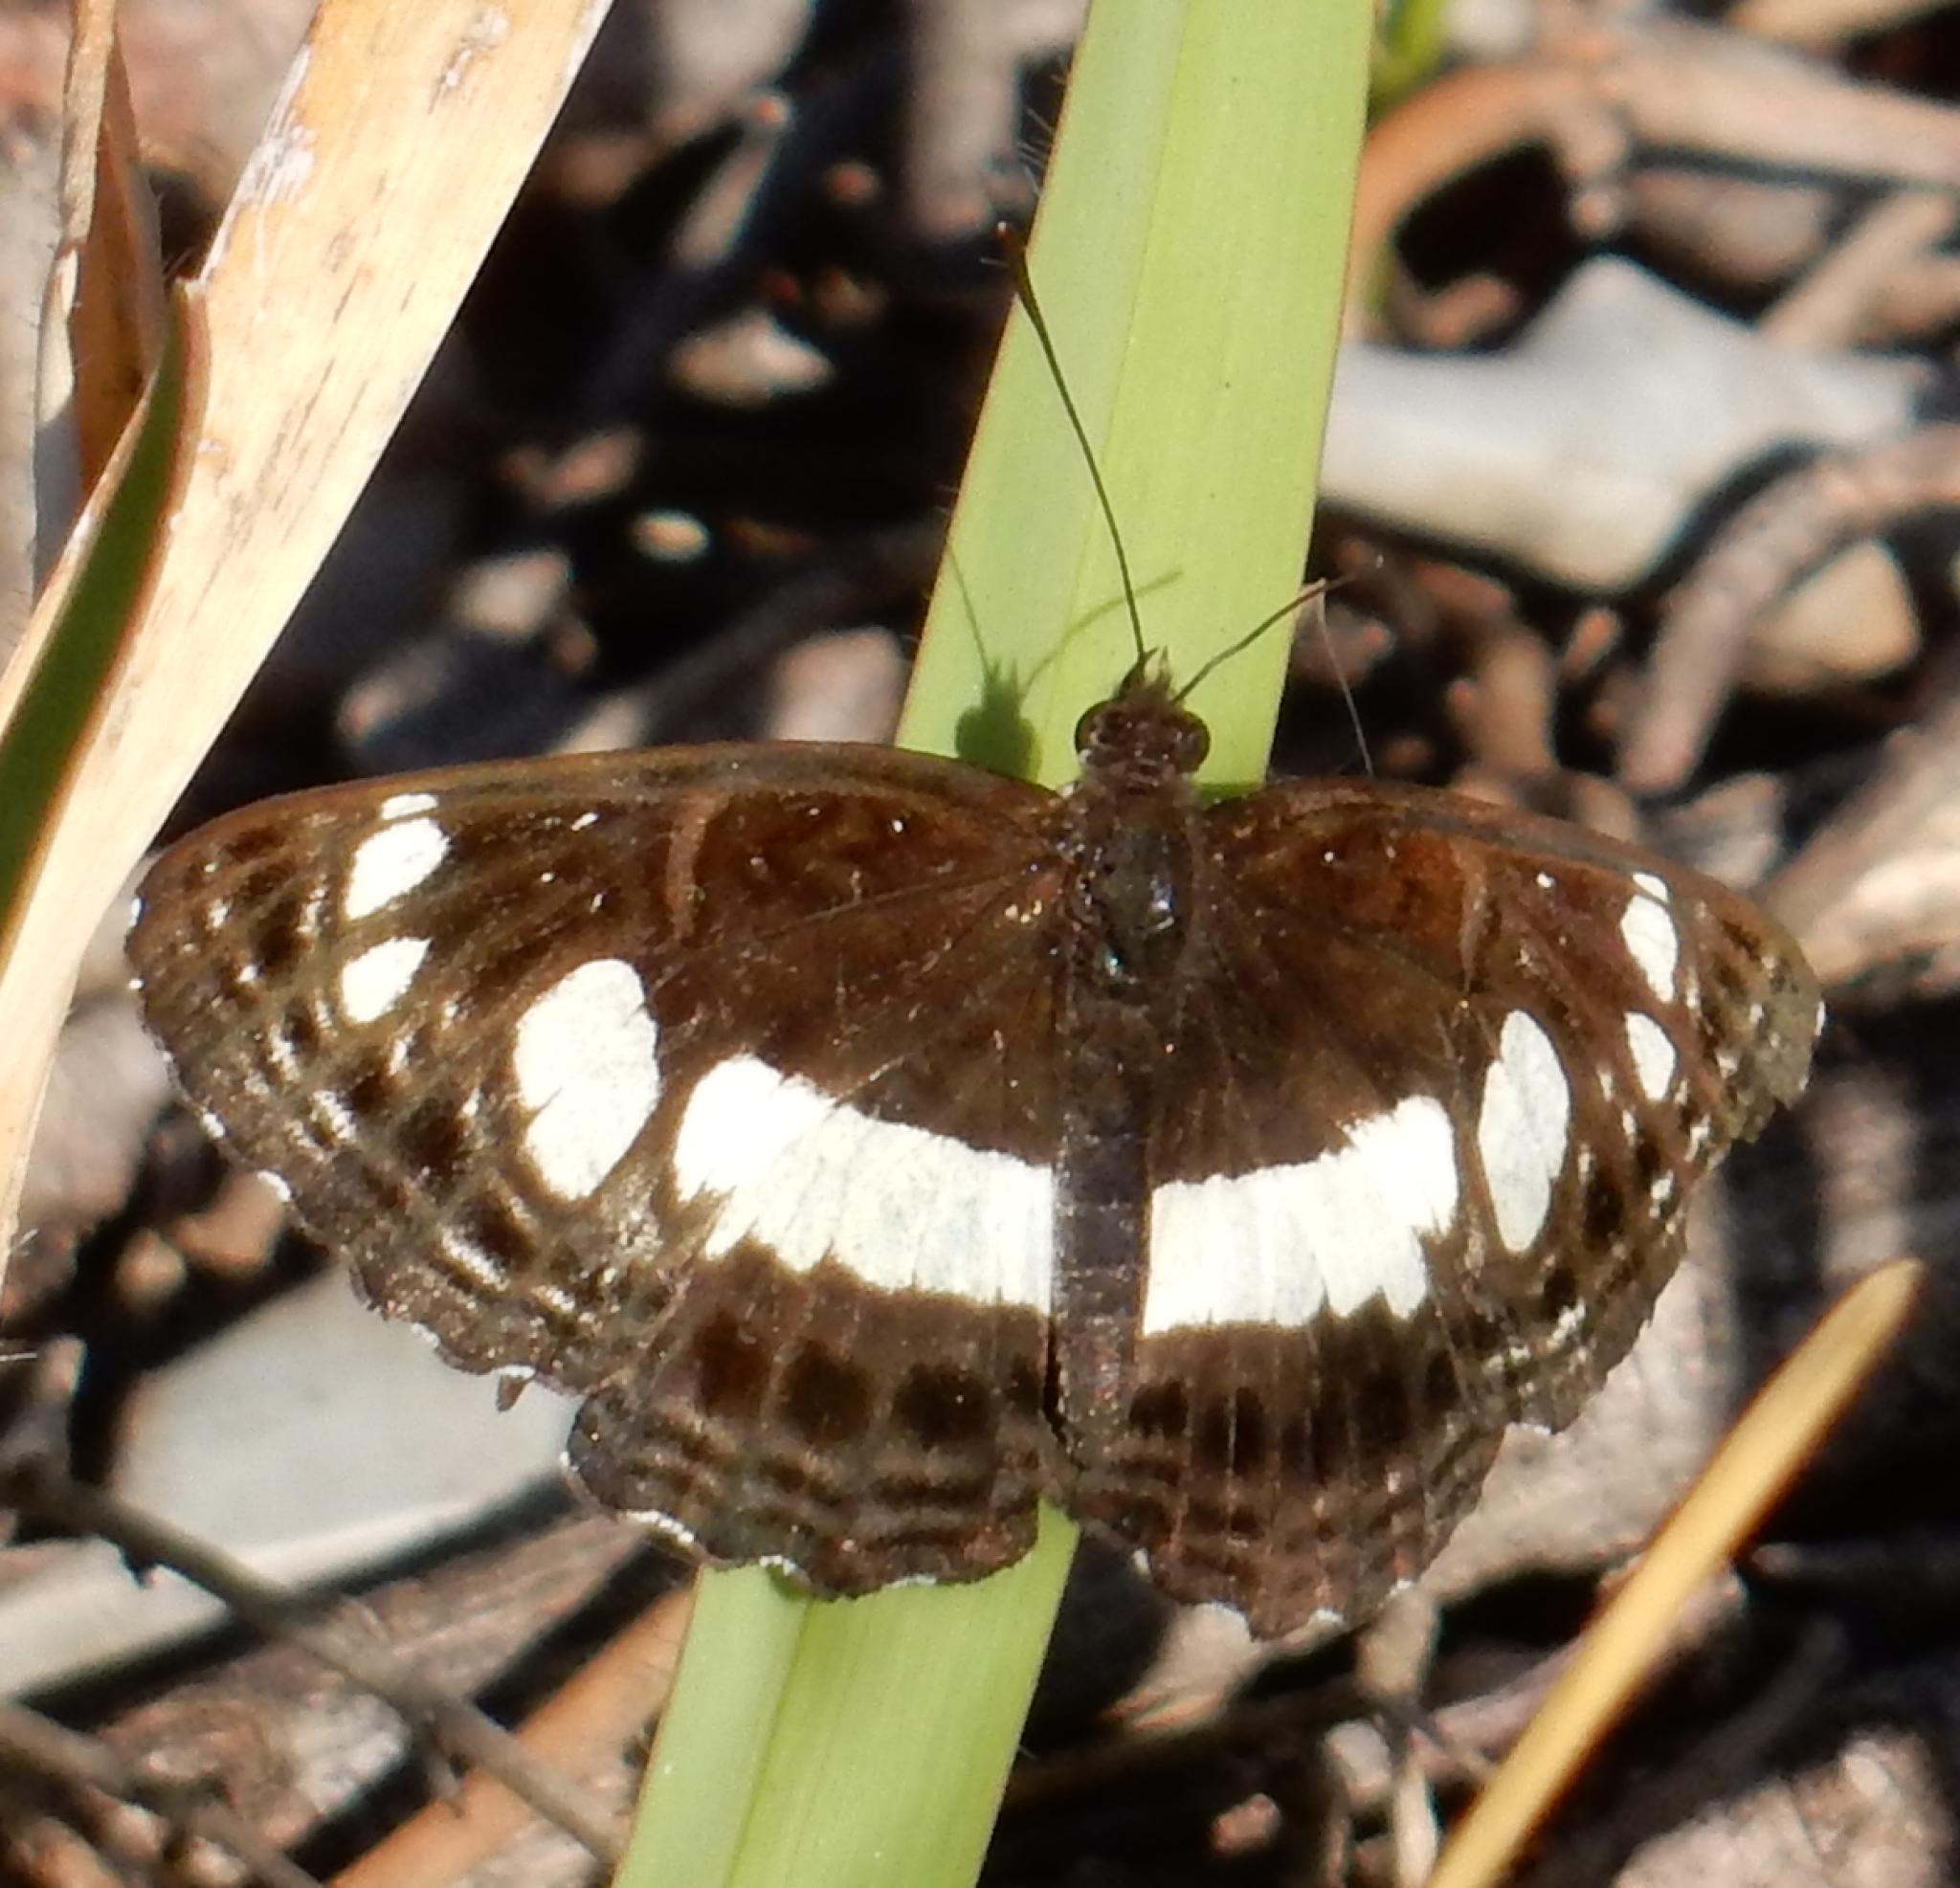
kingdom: Animalia
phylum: Arthropoda
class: Insecta
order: Lepidoptera
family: Nymphalidae
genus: Neptis
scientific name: Neptis saclava
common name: Small spotted sailor
